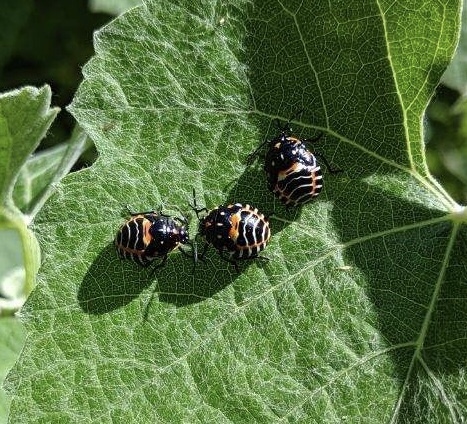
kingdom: Animalia
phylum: Arthropoda
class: Insecta
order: Hemiptera
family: Pentatomidae
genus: Murgantia
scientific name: Murgantia histrionica
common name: Harlequin bug
